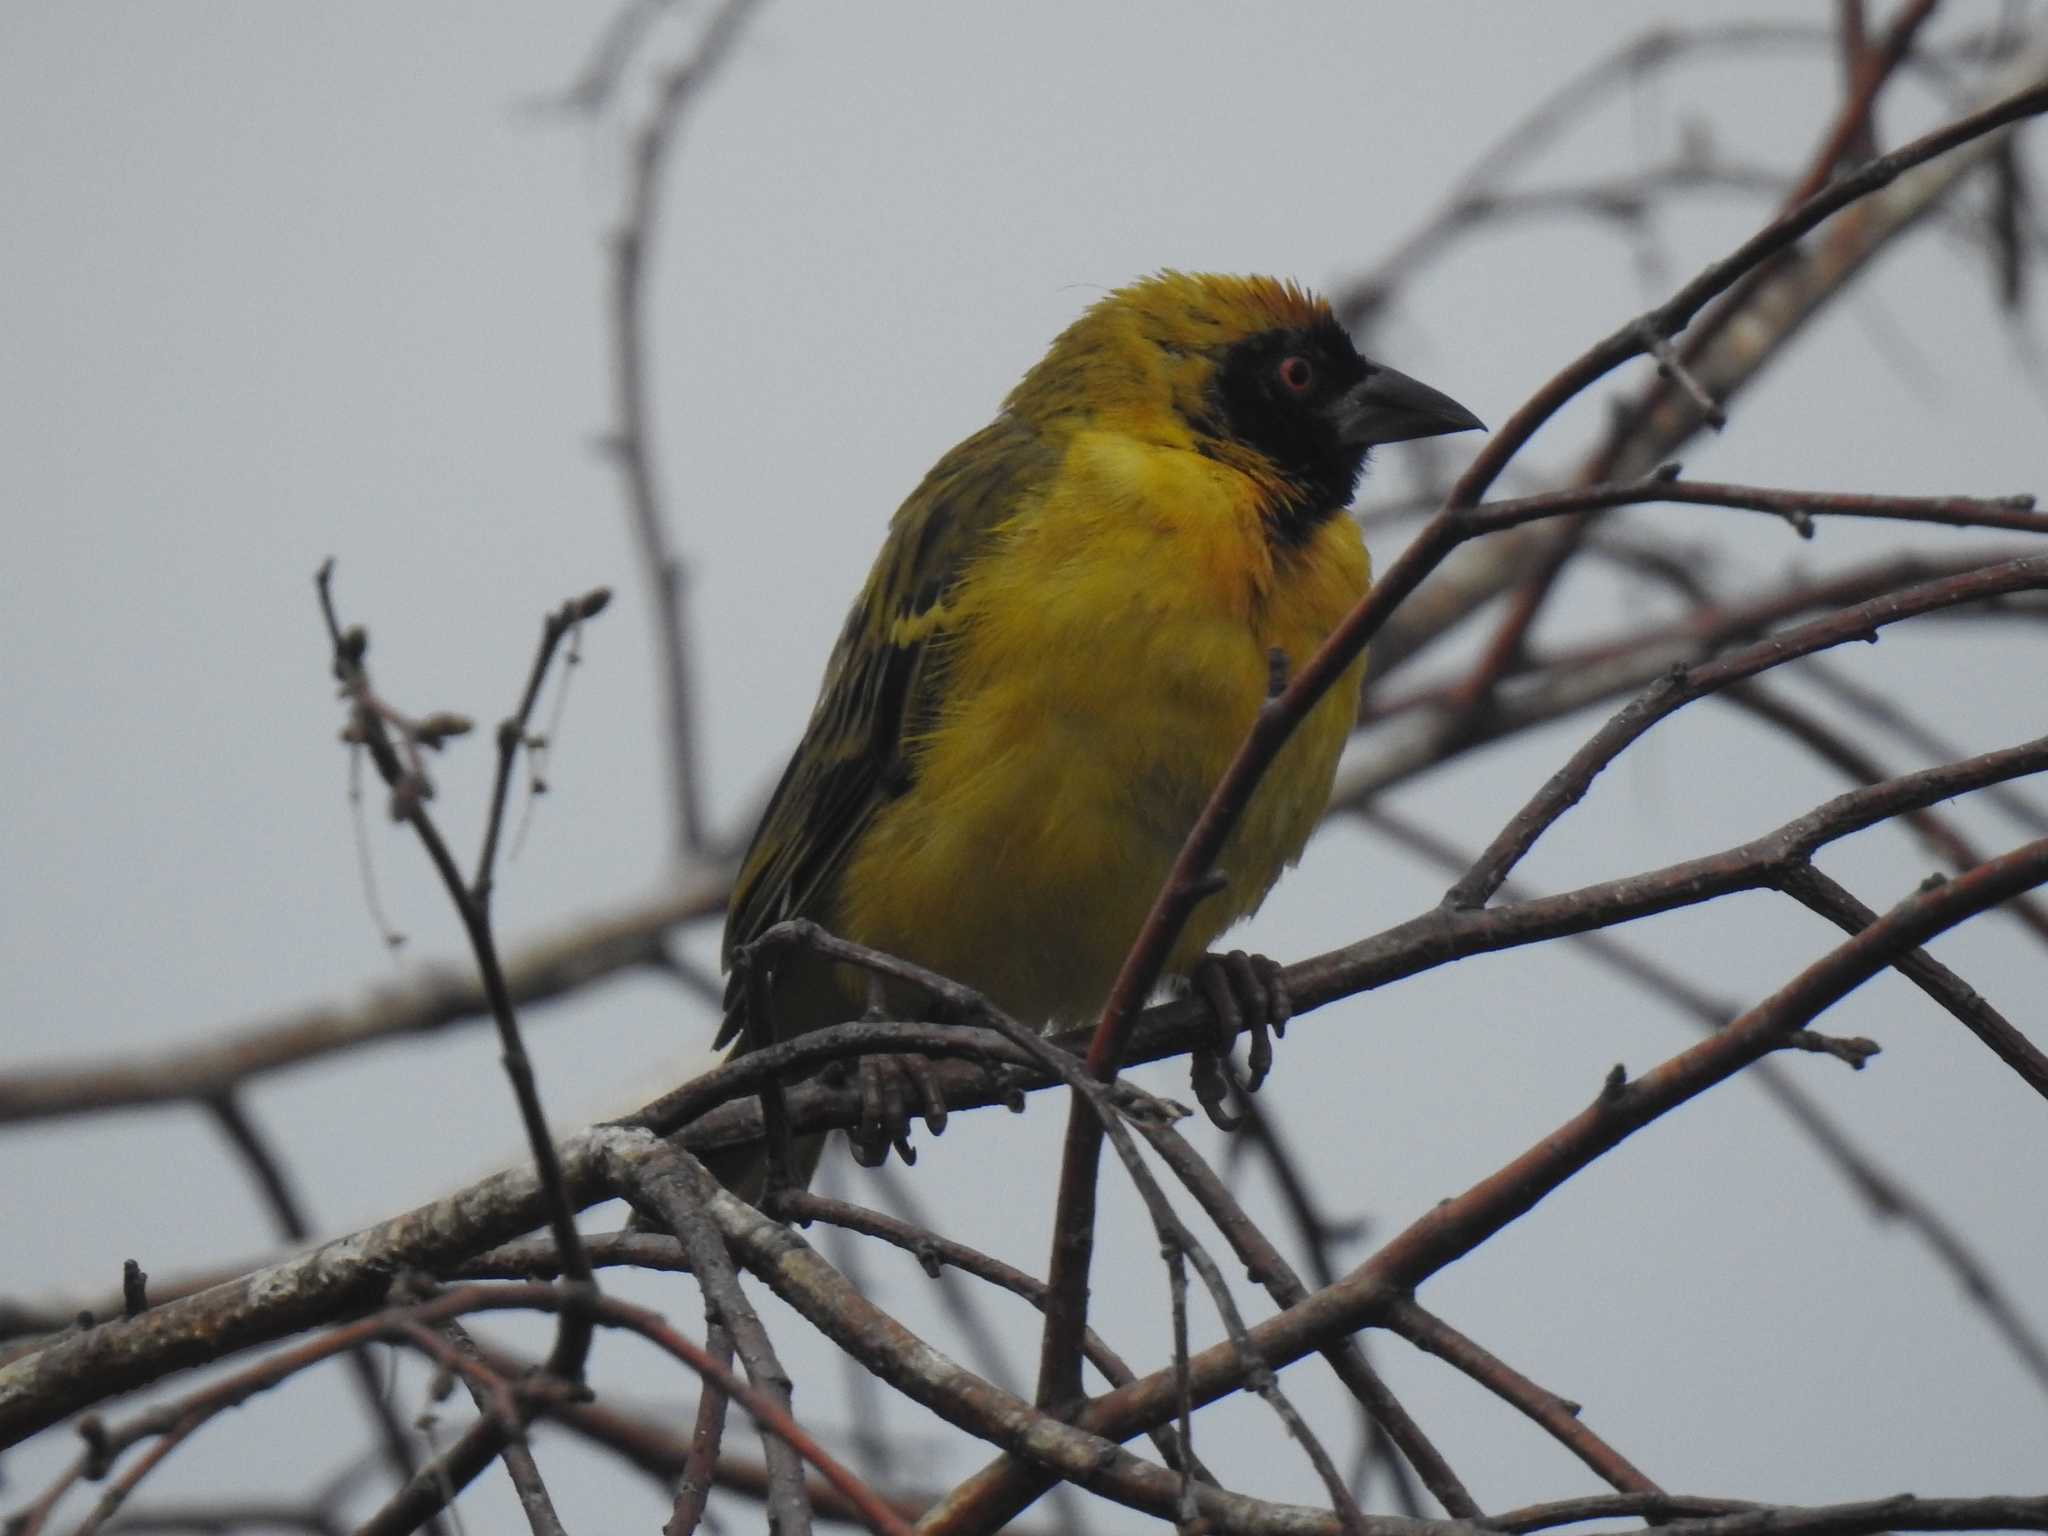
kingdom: Animalia
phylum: Chordata
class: Aves
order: Passeriformes
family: Ploceidae
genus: Ploceus
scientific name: Ploceus velatus
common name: Southern masked weaver
